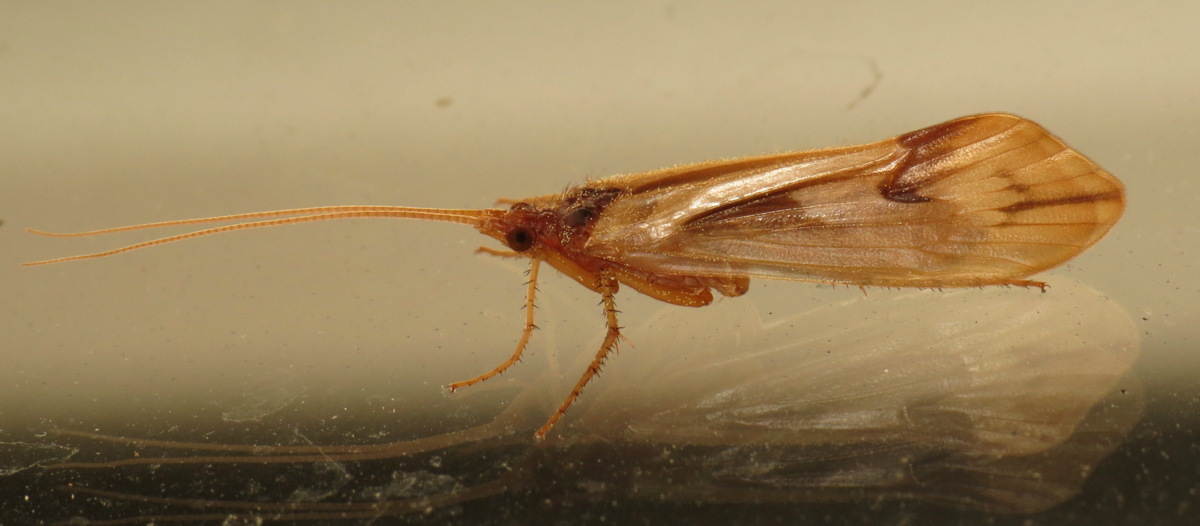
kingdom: Animalia
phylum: Arthropoda
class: Insecta
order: Trichoptera
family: Limnephilidae
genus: Platycentropus
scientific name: Platycentropus radiatus
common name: Chocolate-and-cream sedge
